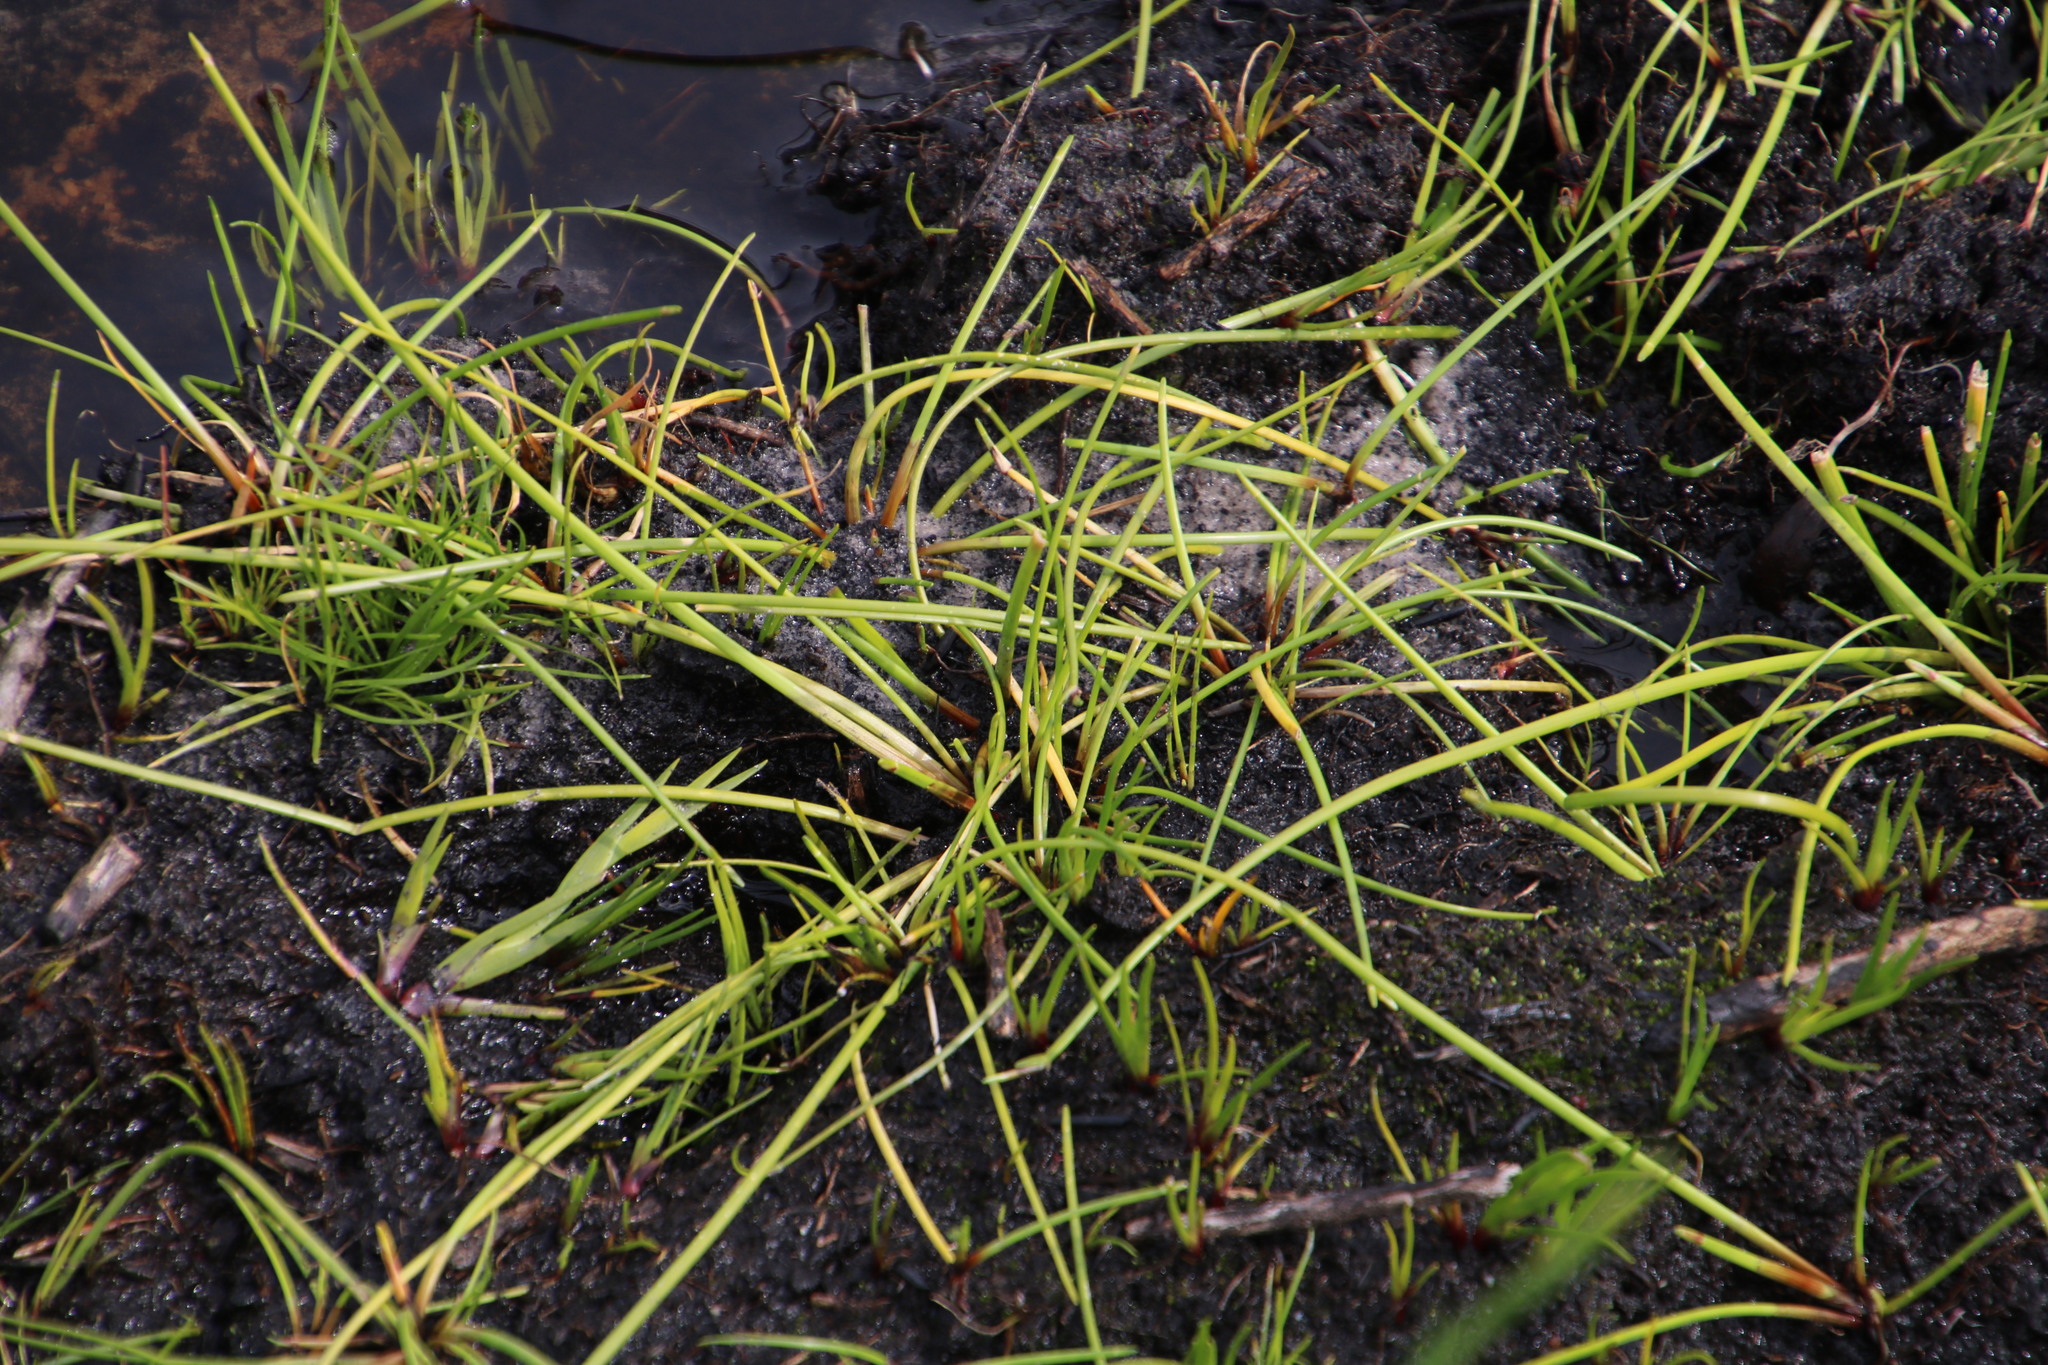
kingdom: Plantae
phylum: Tracheophyta
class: Liliopsida
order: Poales
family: Cyperaceae
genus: Isolepis
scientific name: Isolepis prolifera
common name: Proliferating bulrush
